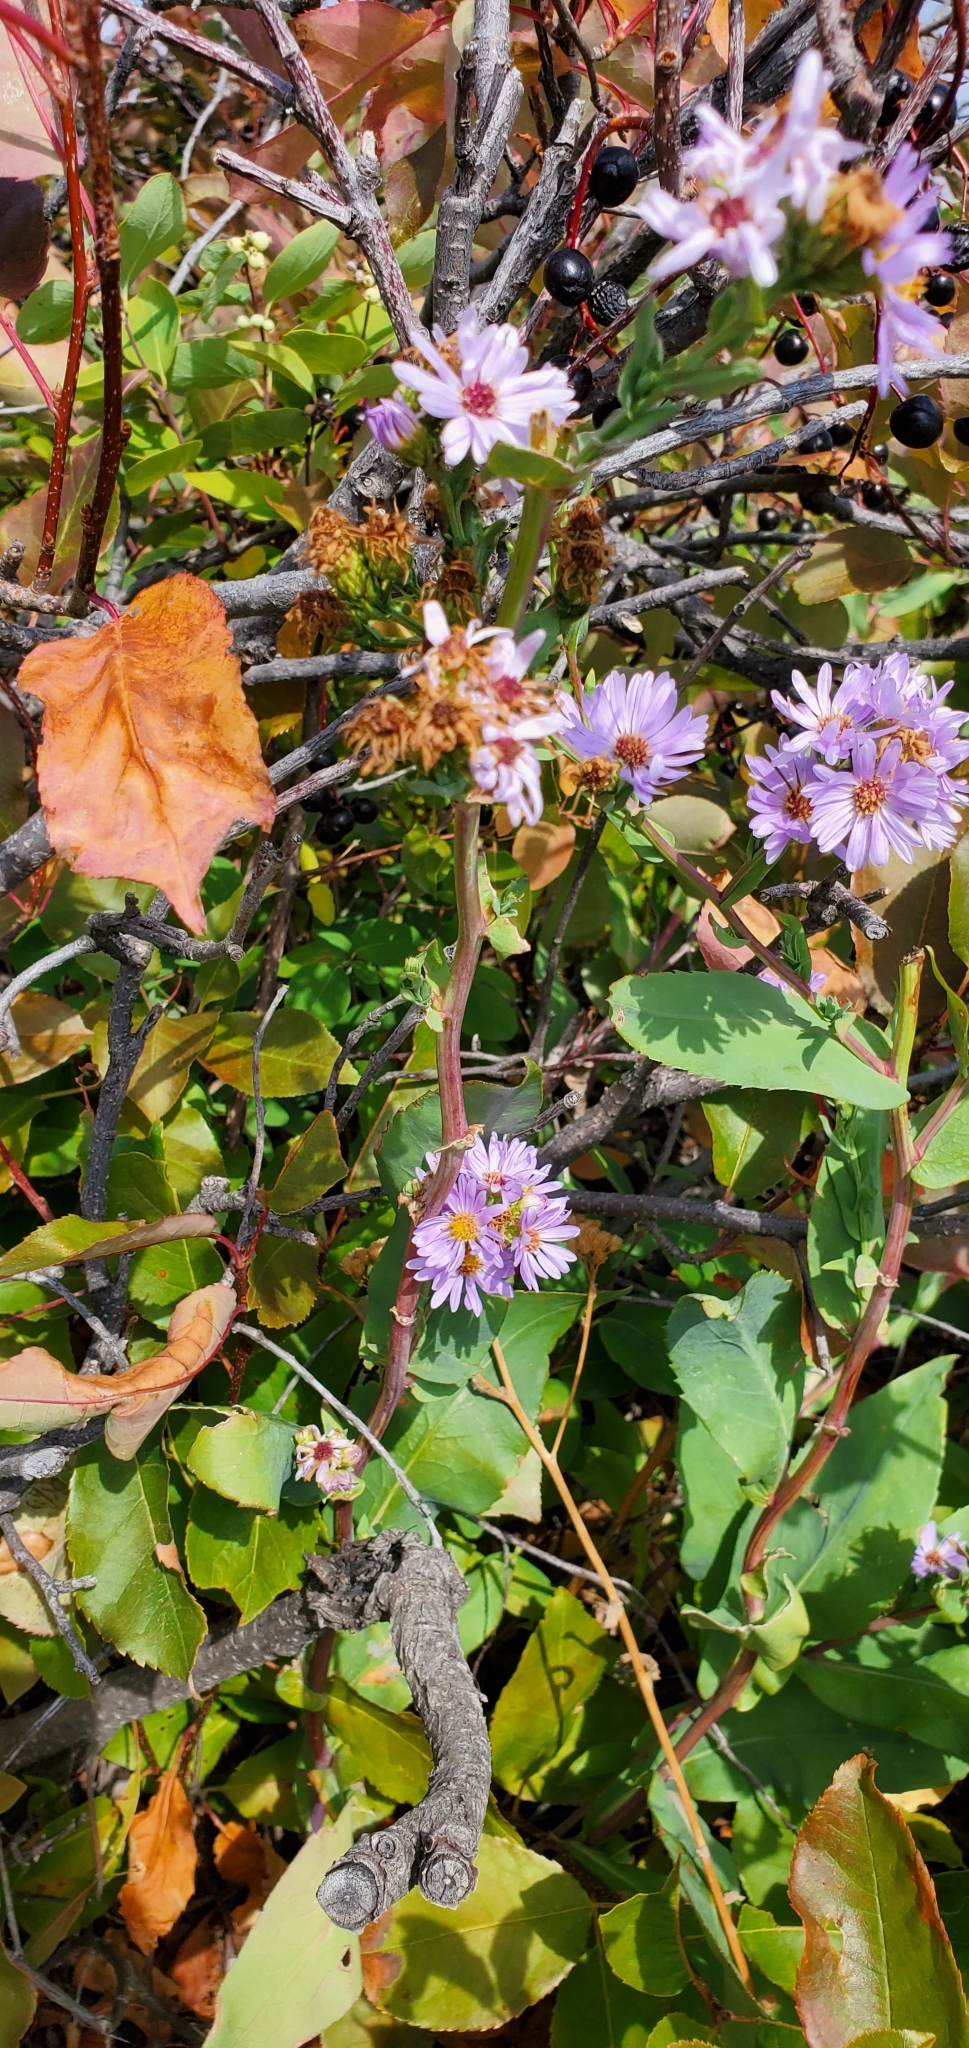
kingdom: Plantae
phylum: Tracheophyta
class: Magnoliopsida
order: Asterales
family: Asteraceae
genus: Symphyotrichum
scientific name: Symphyotrichum laeve
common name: Glaucous aster
